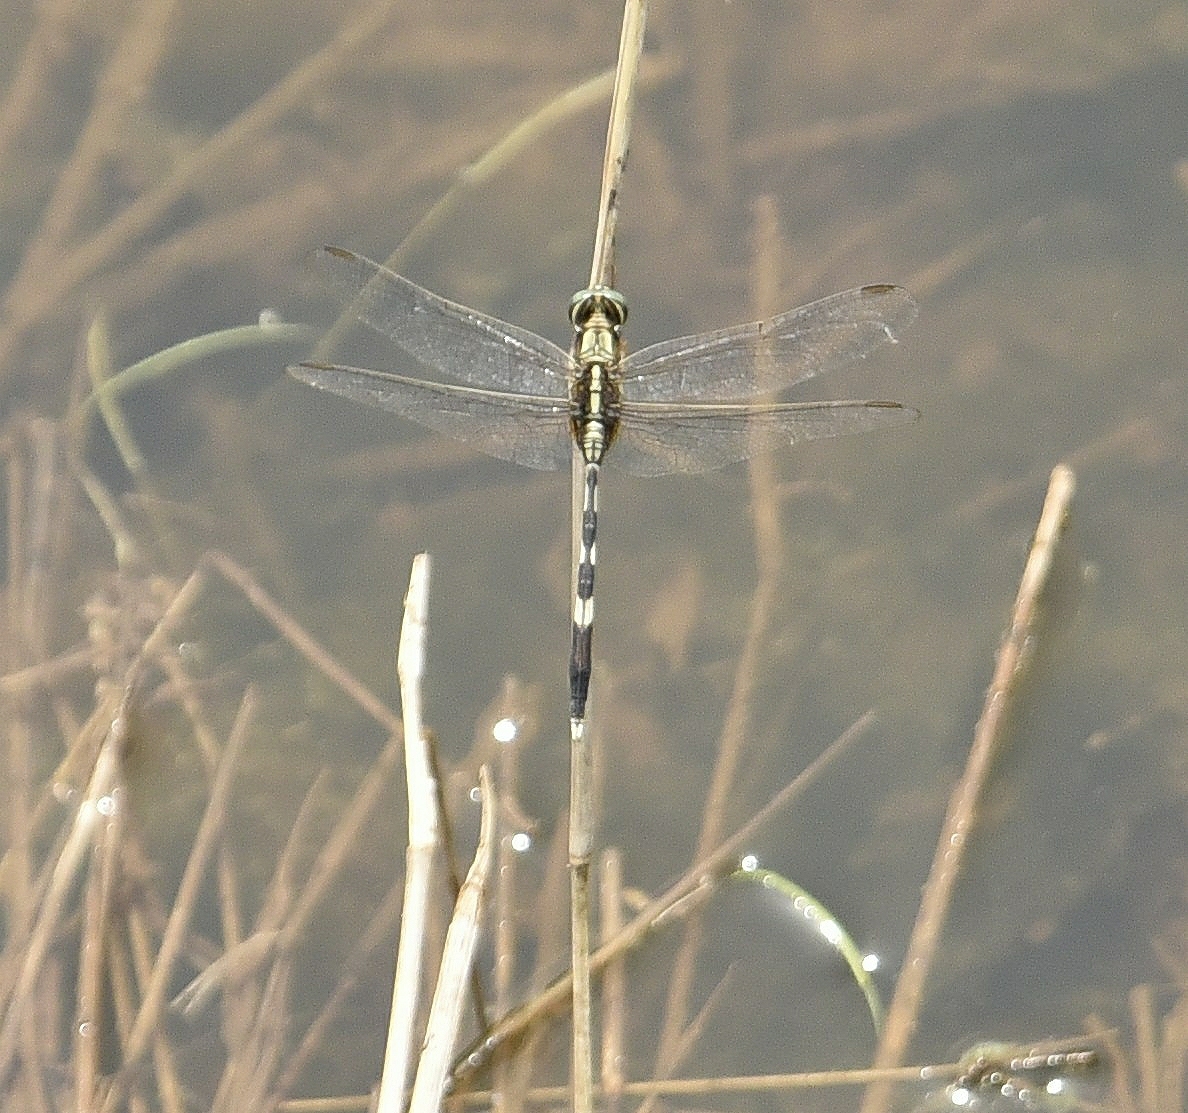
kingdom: Animalia
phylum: Arthropoda
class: Insecta
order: Odonata
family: Libellulidae
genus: Orthetrum
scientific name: Orthetrum sabina
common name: Slender skimmer
